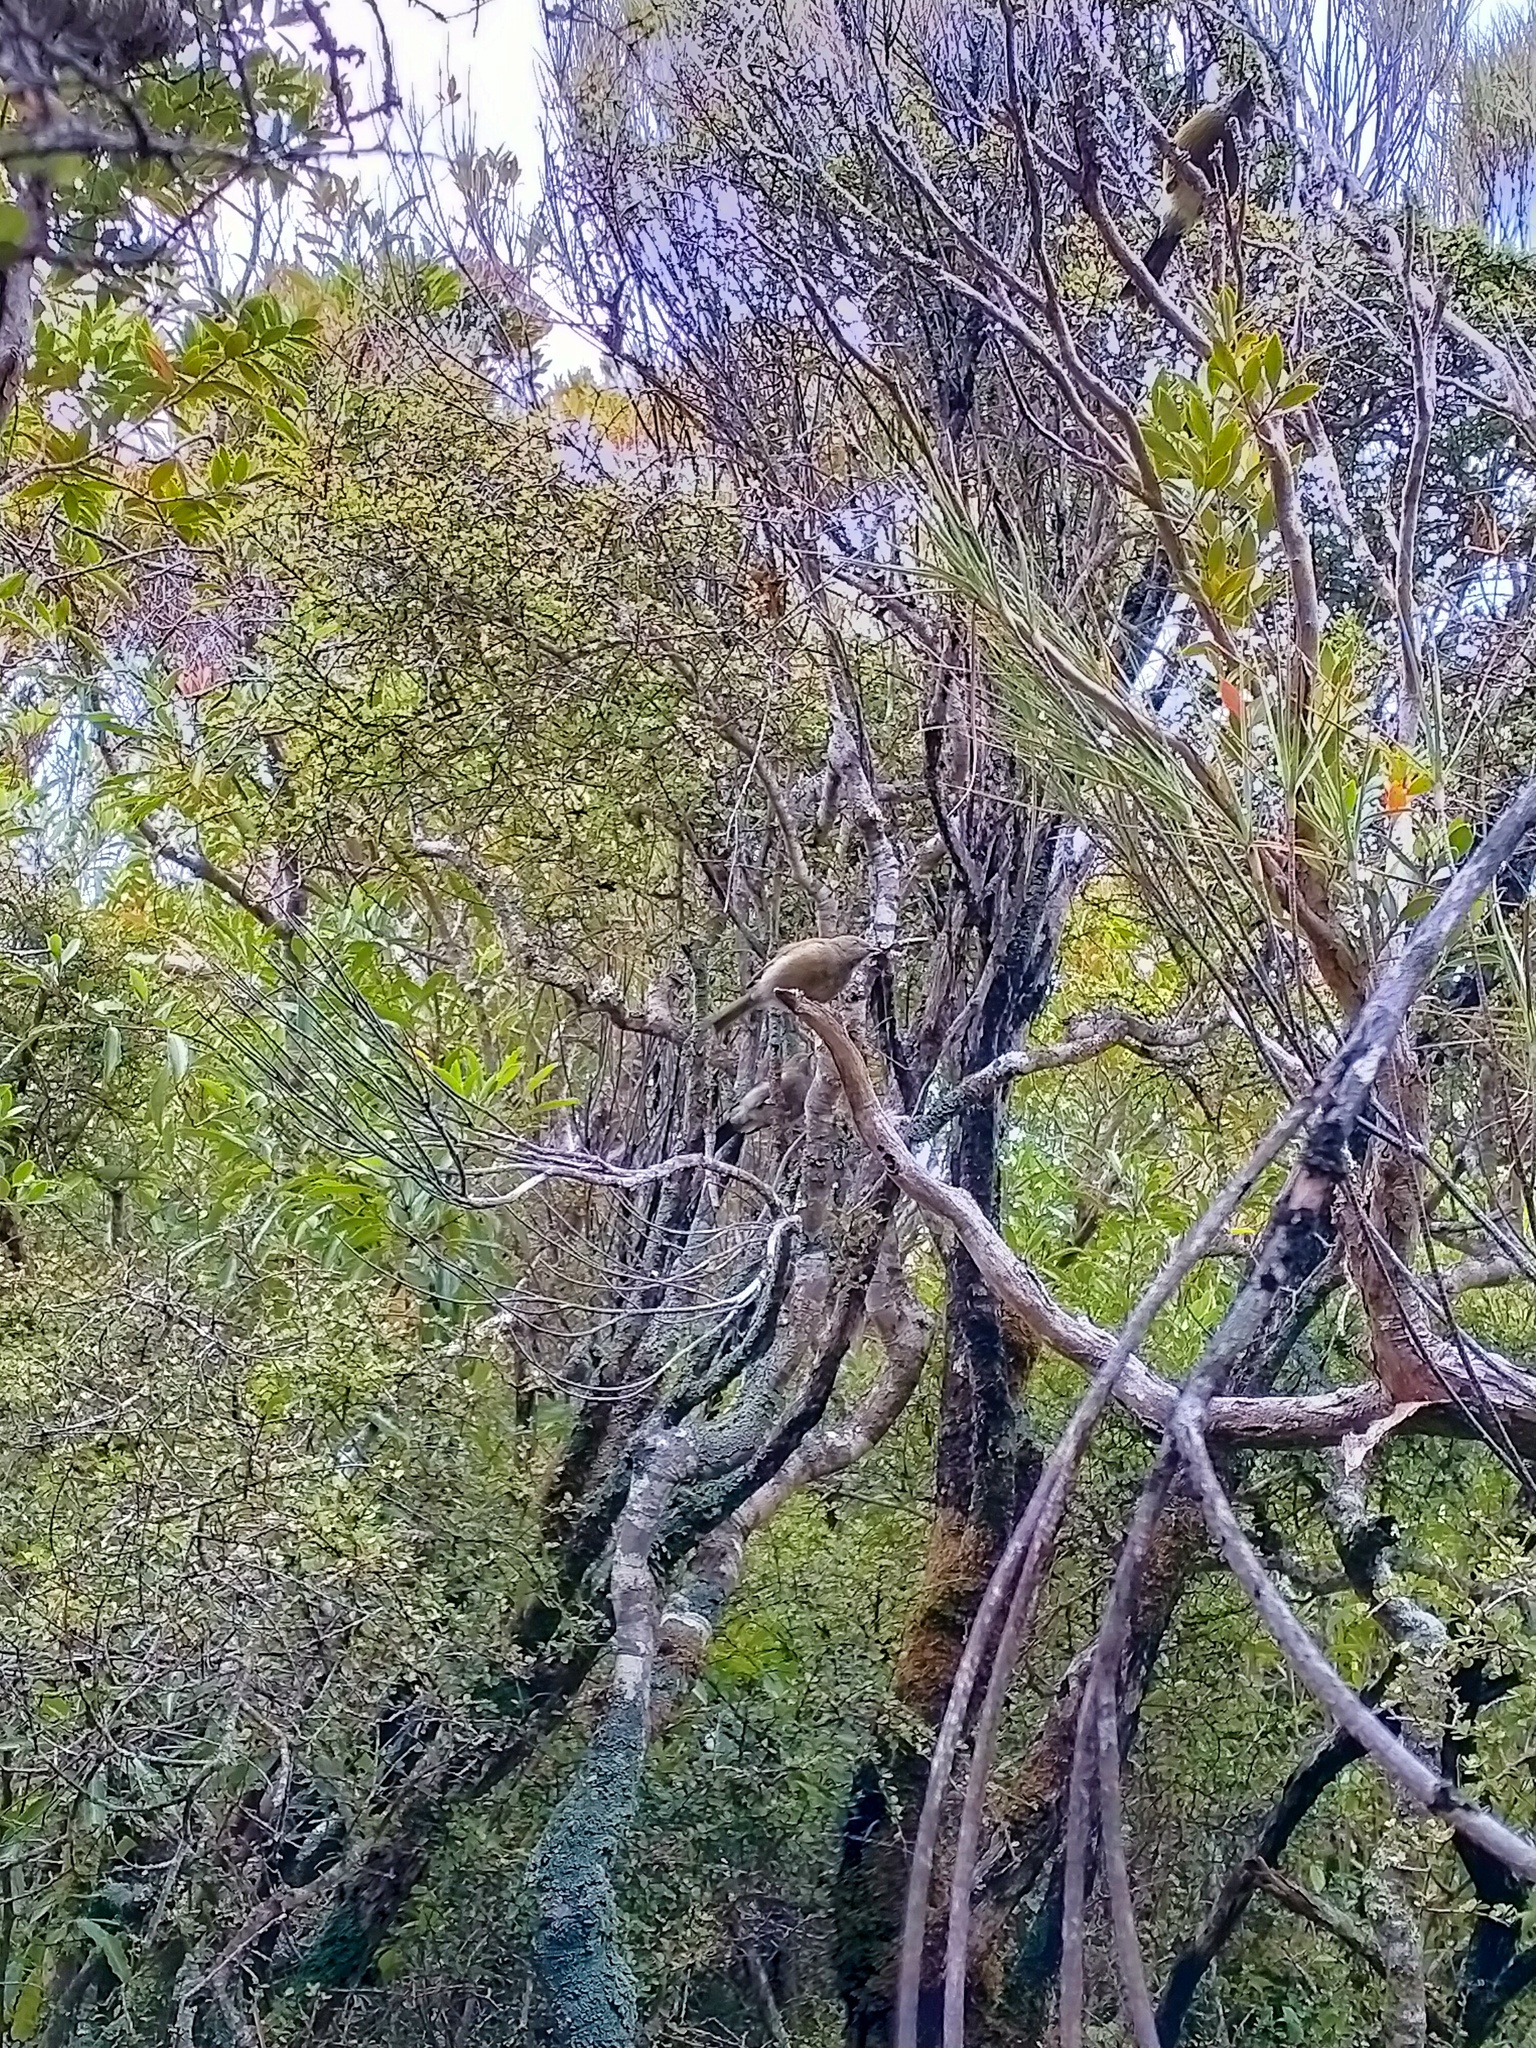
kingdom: Animalia
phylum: Chordata
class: Aves
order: Passeriformes
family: Meliphagidae
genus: Anthornis
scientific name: Anthornis melanura
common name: New zealand bellbird
